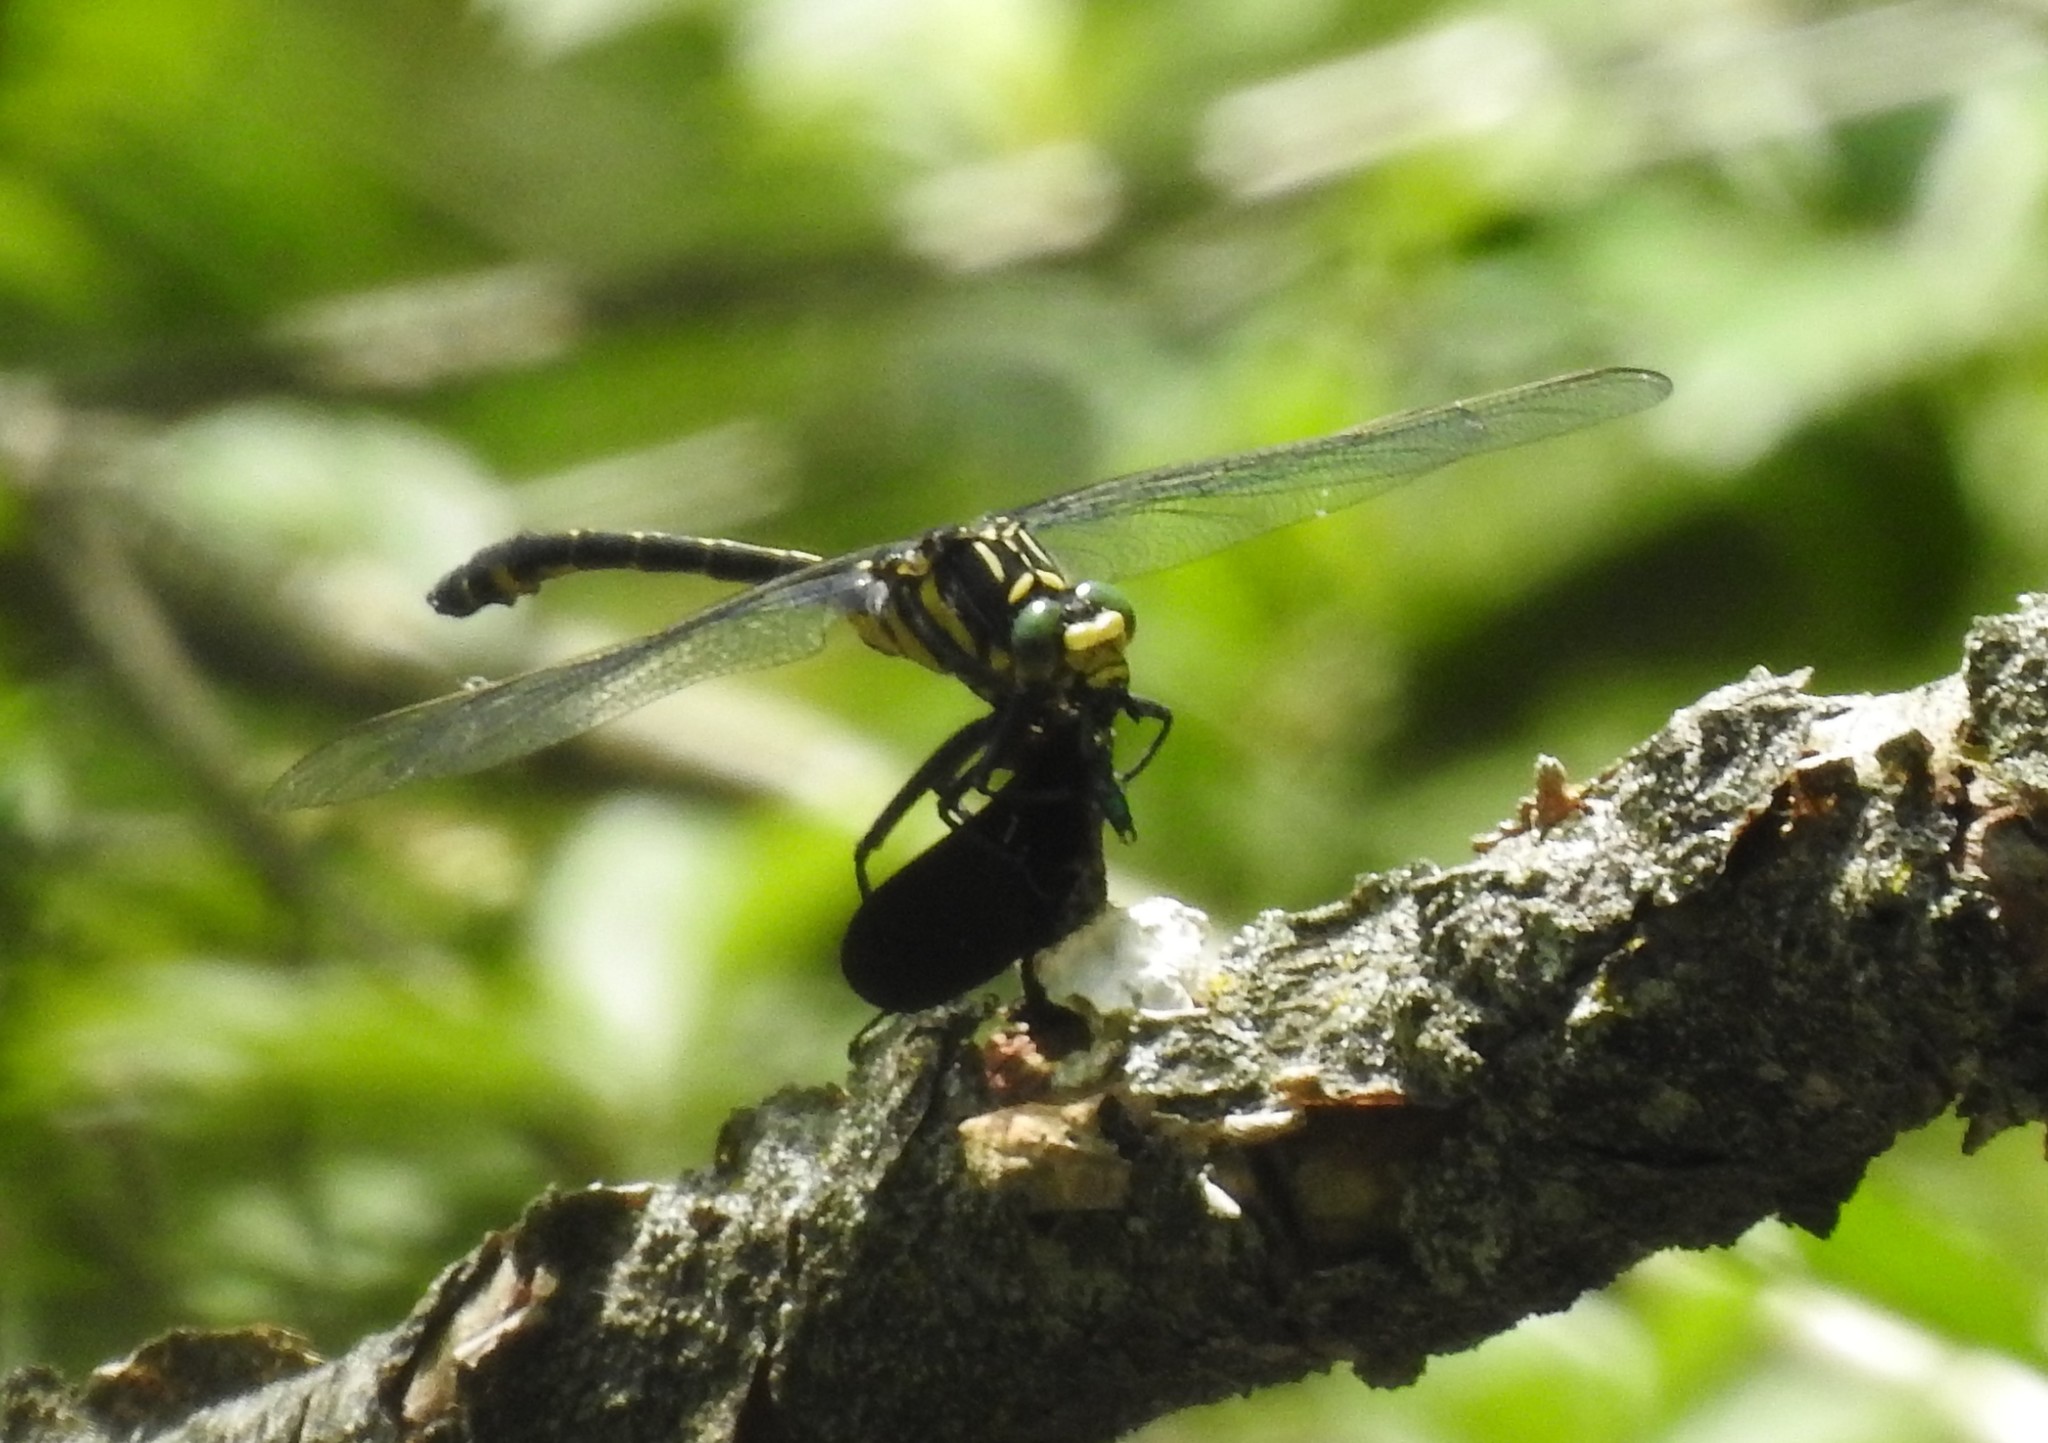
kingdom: Animalia
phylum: Arthropoda
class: Insecta
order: Odonata
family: Gomphidae
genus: Hagenius
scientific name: Hagenius brevistylus
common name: Dragonhunter
